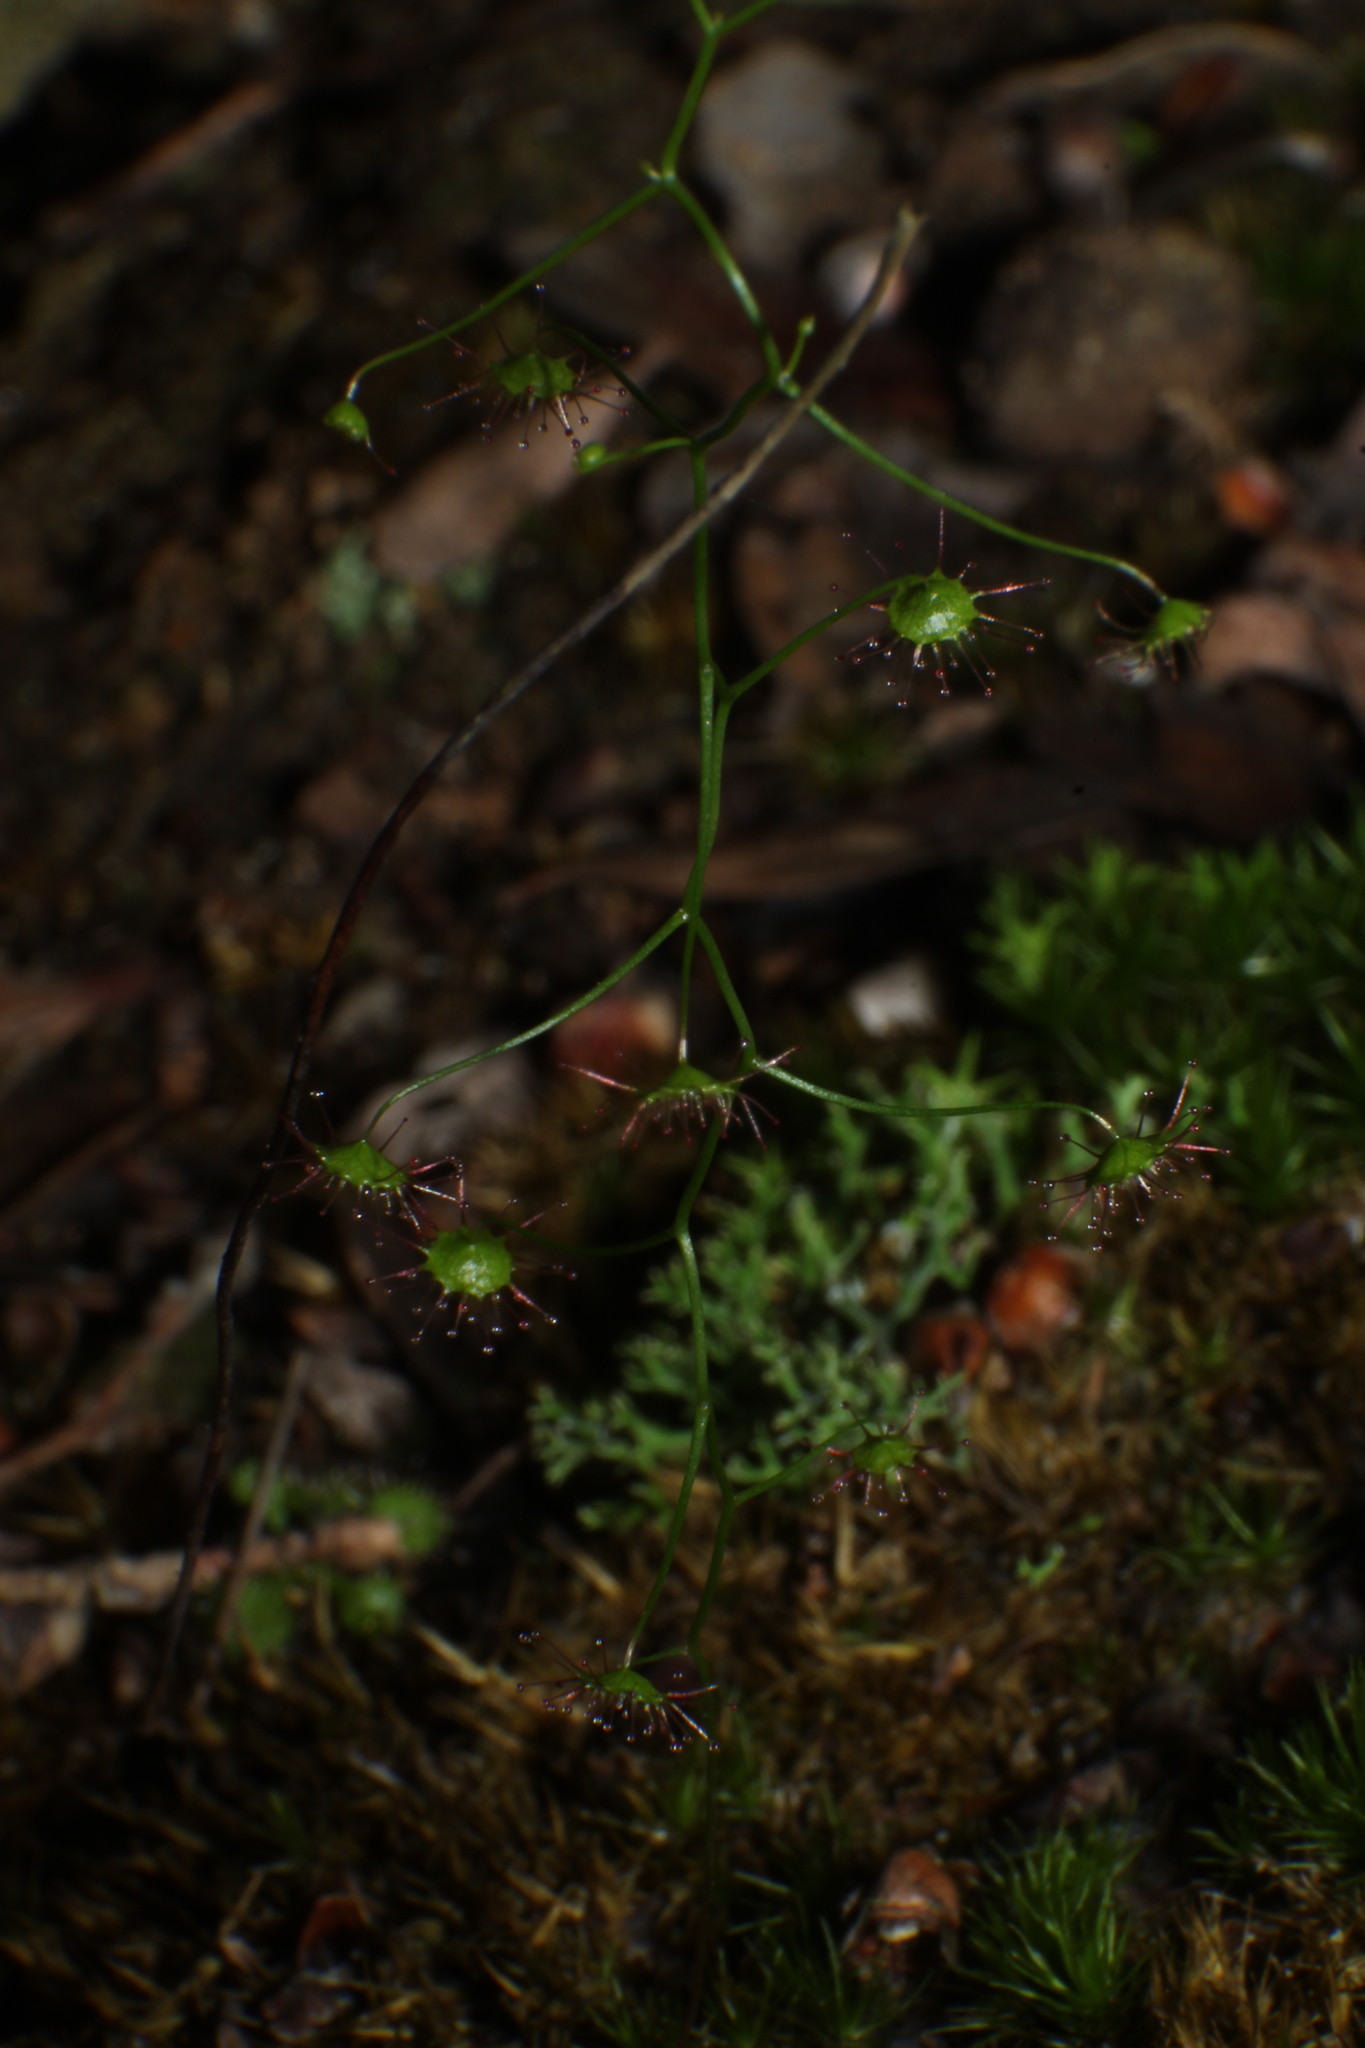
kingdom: Plantae
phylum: Tracheophyta
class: Magnoliopsida
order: Caryophyllales
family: Droseraceae
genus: Drosera
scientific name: Drosera pallida
